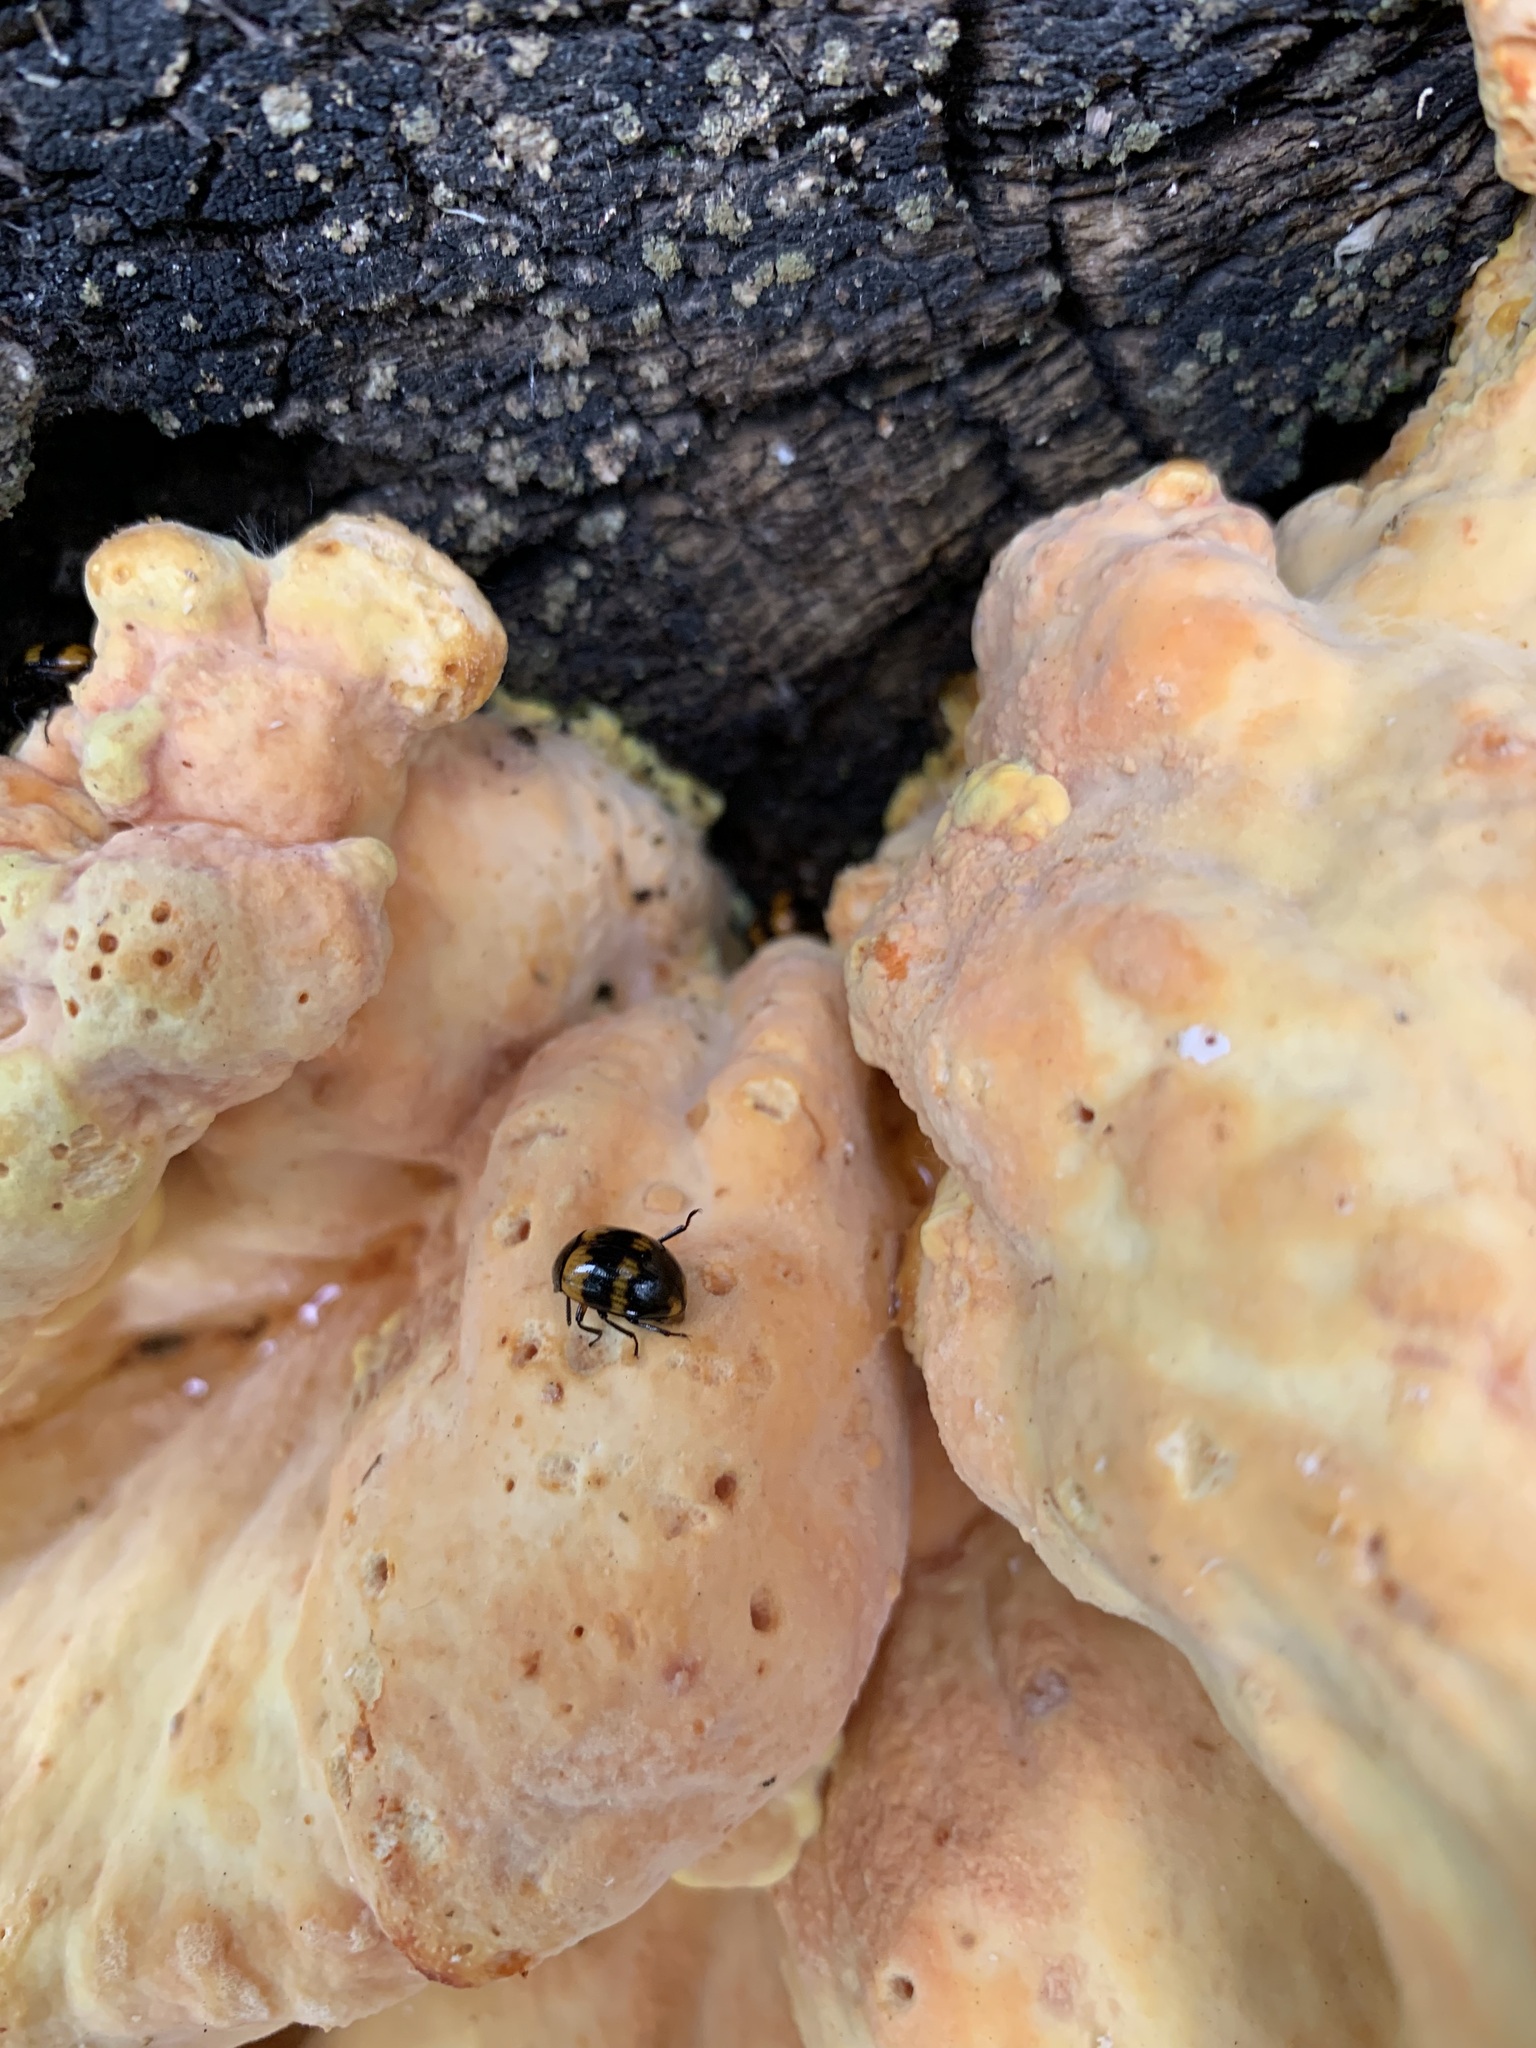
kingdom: Fungi
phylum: Basidiomycota
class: Agaricomycetes
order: Polyporales
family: Laetiporaceae
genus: Laetiporus
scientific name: Laetiporus sulphureus
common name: Chicken of the woods
